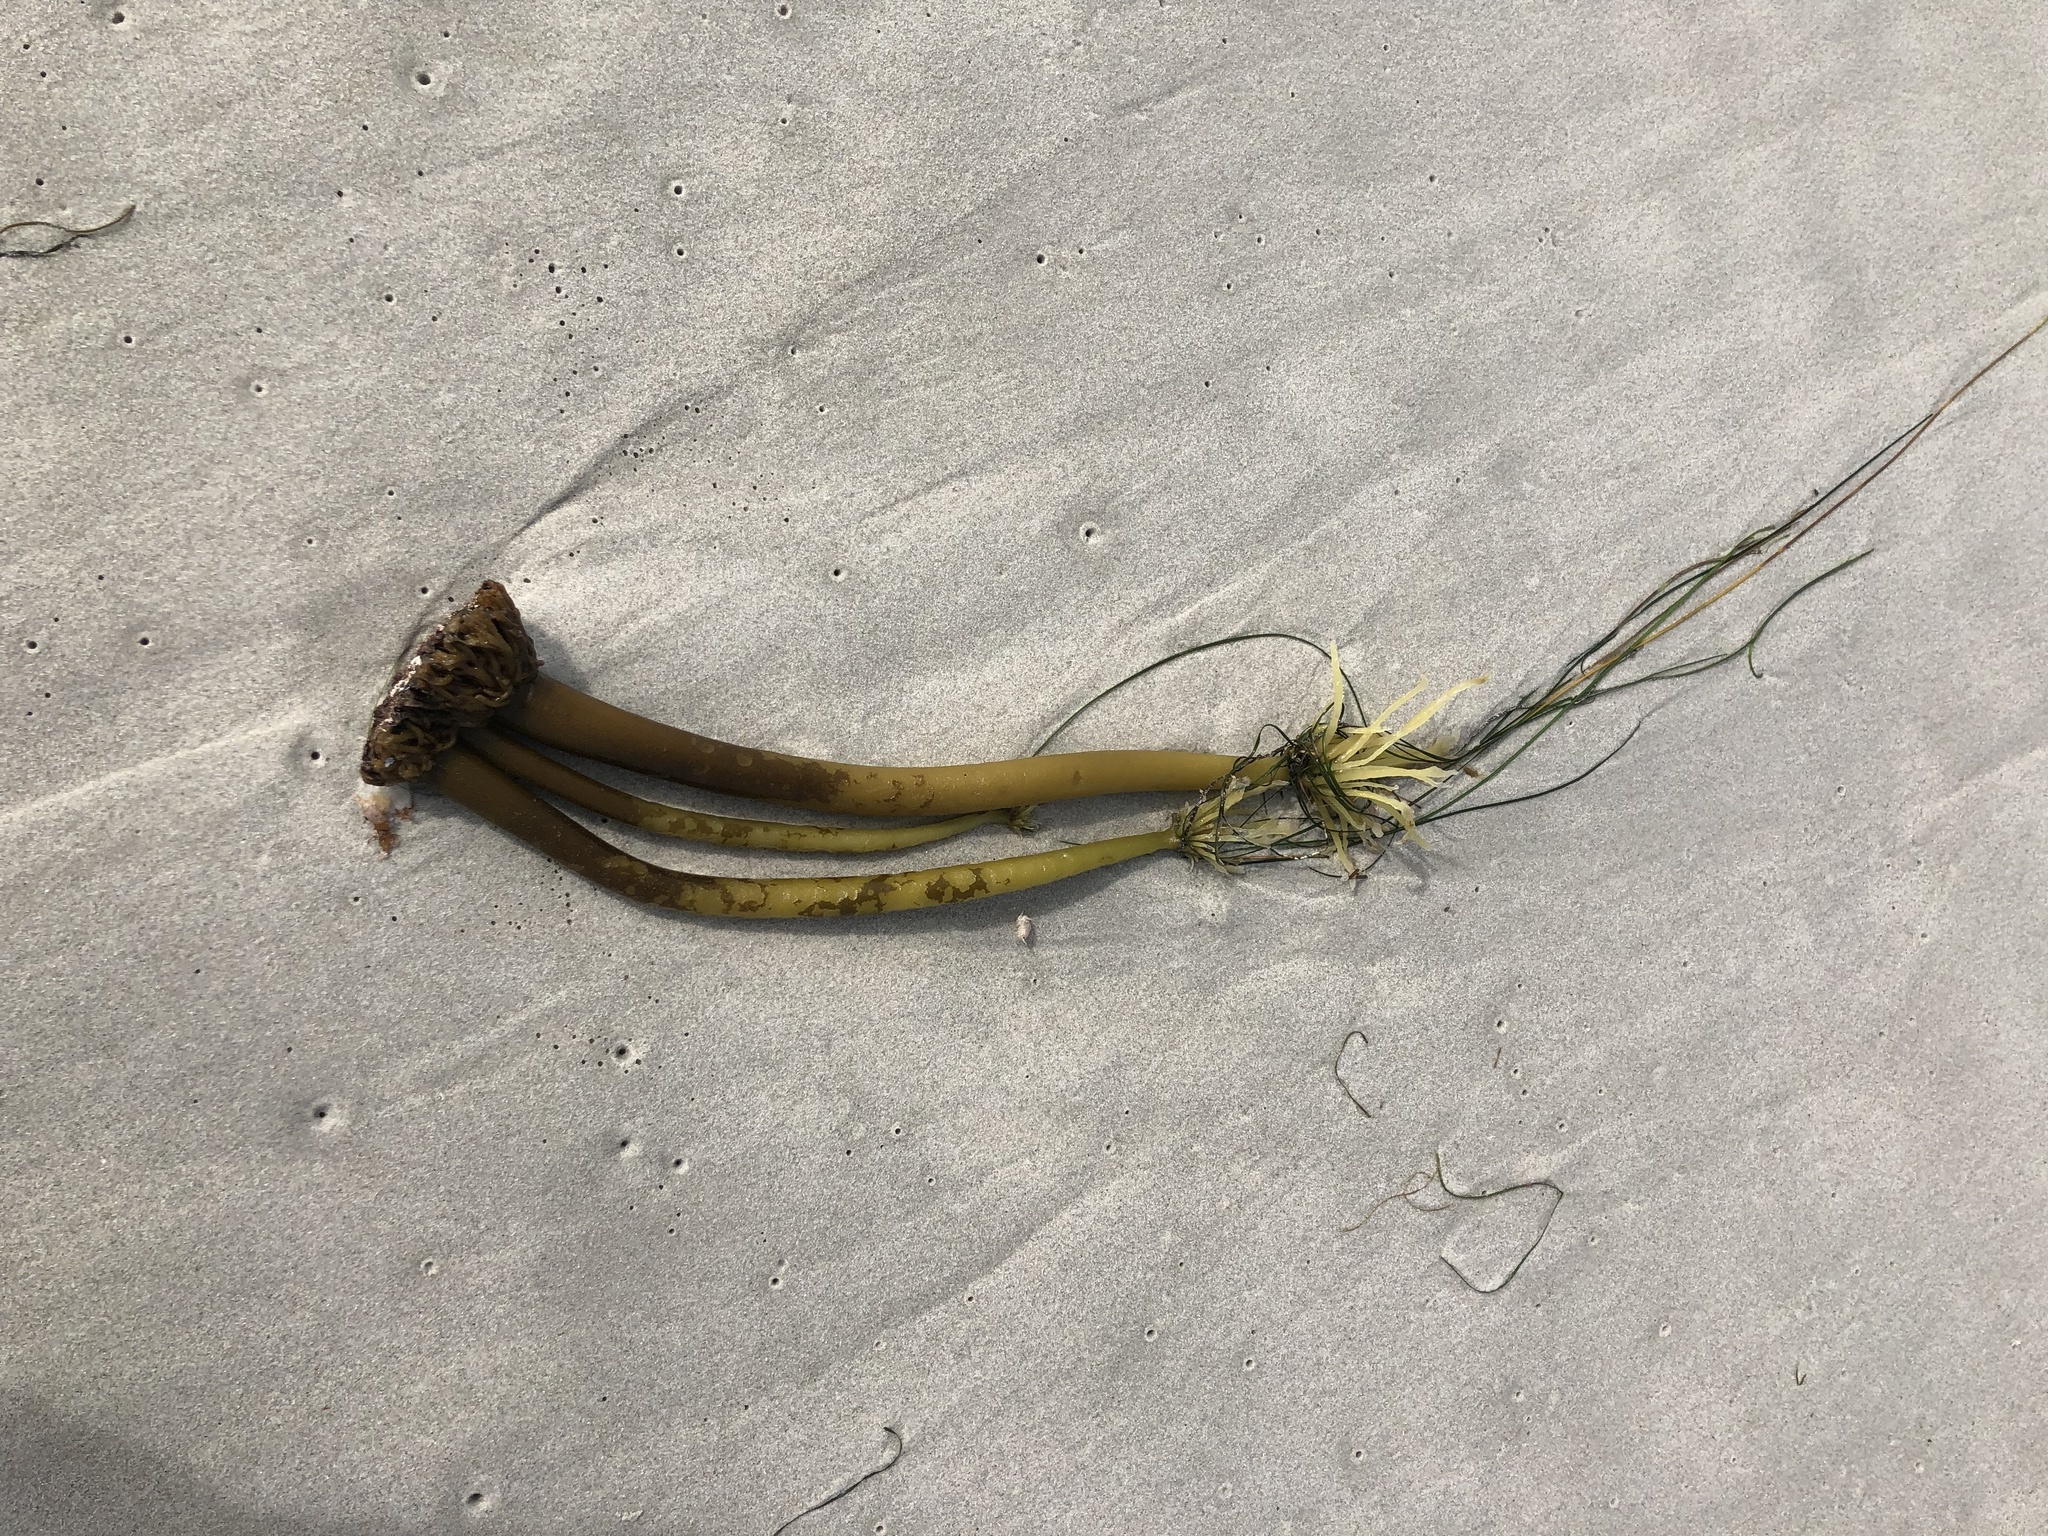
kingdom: Chromista
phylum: Ochrophyta
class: Phaeophyceae
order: Laminariales
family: Laminariaceae
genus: Postelsia
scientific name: Postelsia palmiformis
